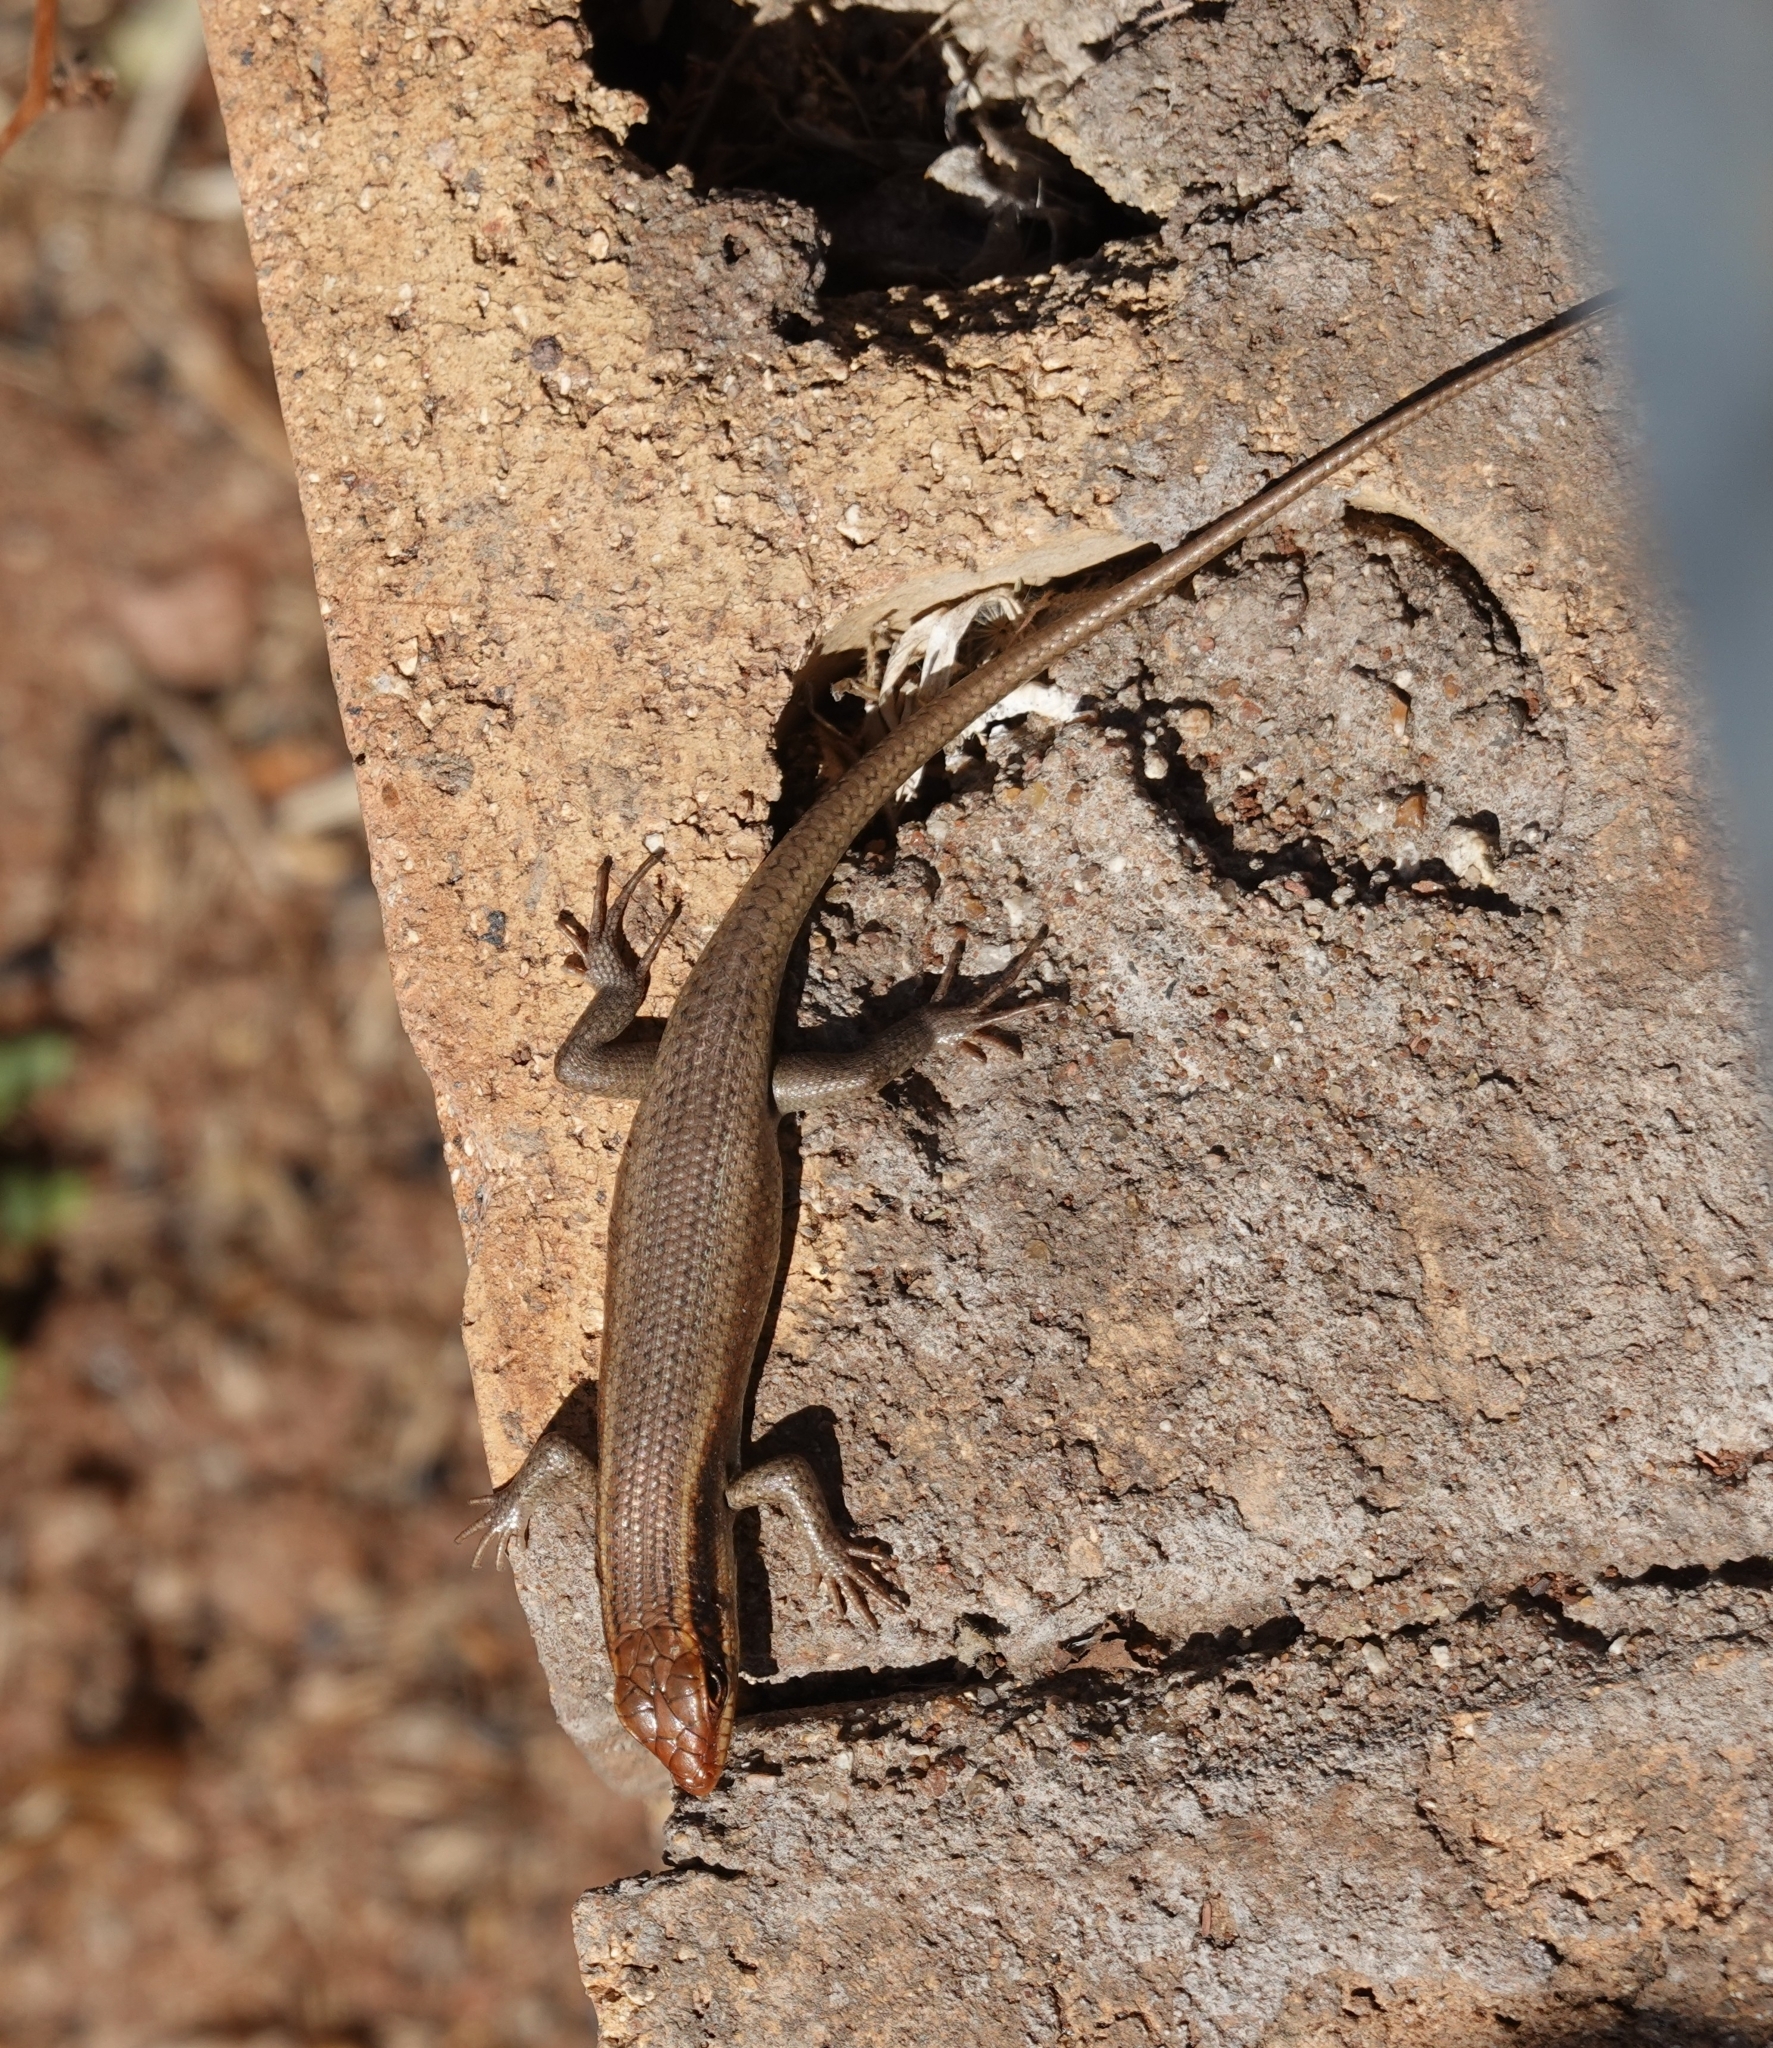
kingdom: Animalia
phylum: Chordata
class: Squamata
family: Scincidae
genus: Trachylepis
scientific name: Trachylepis wahlbergii
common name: Wahlberg’s striped skink
